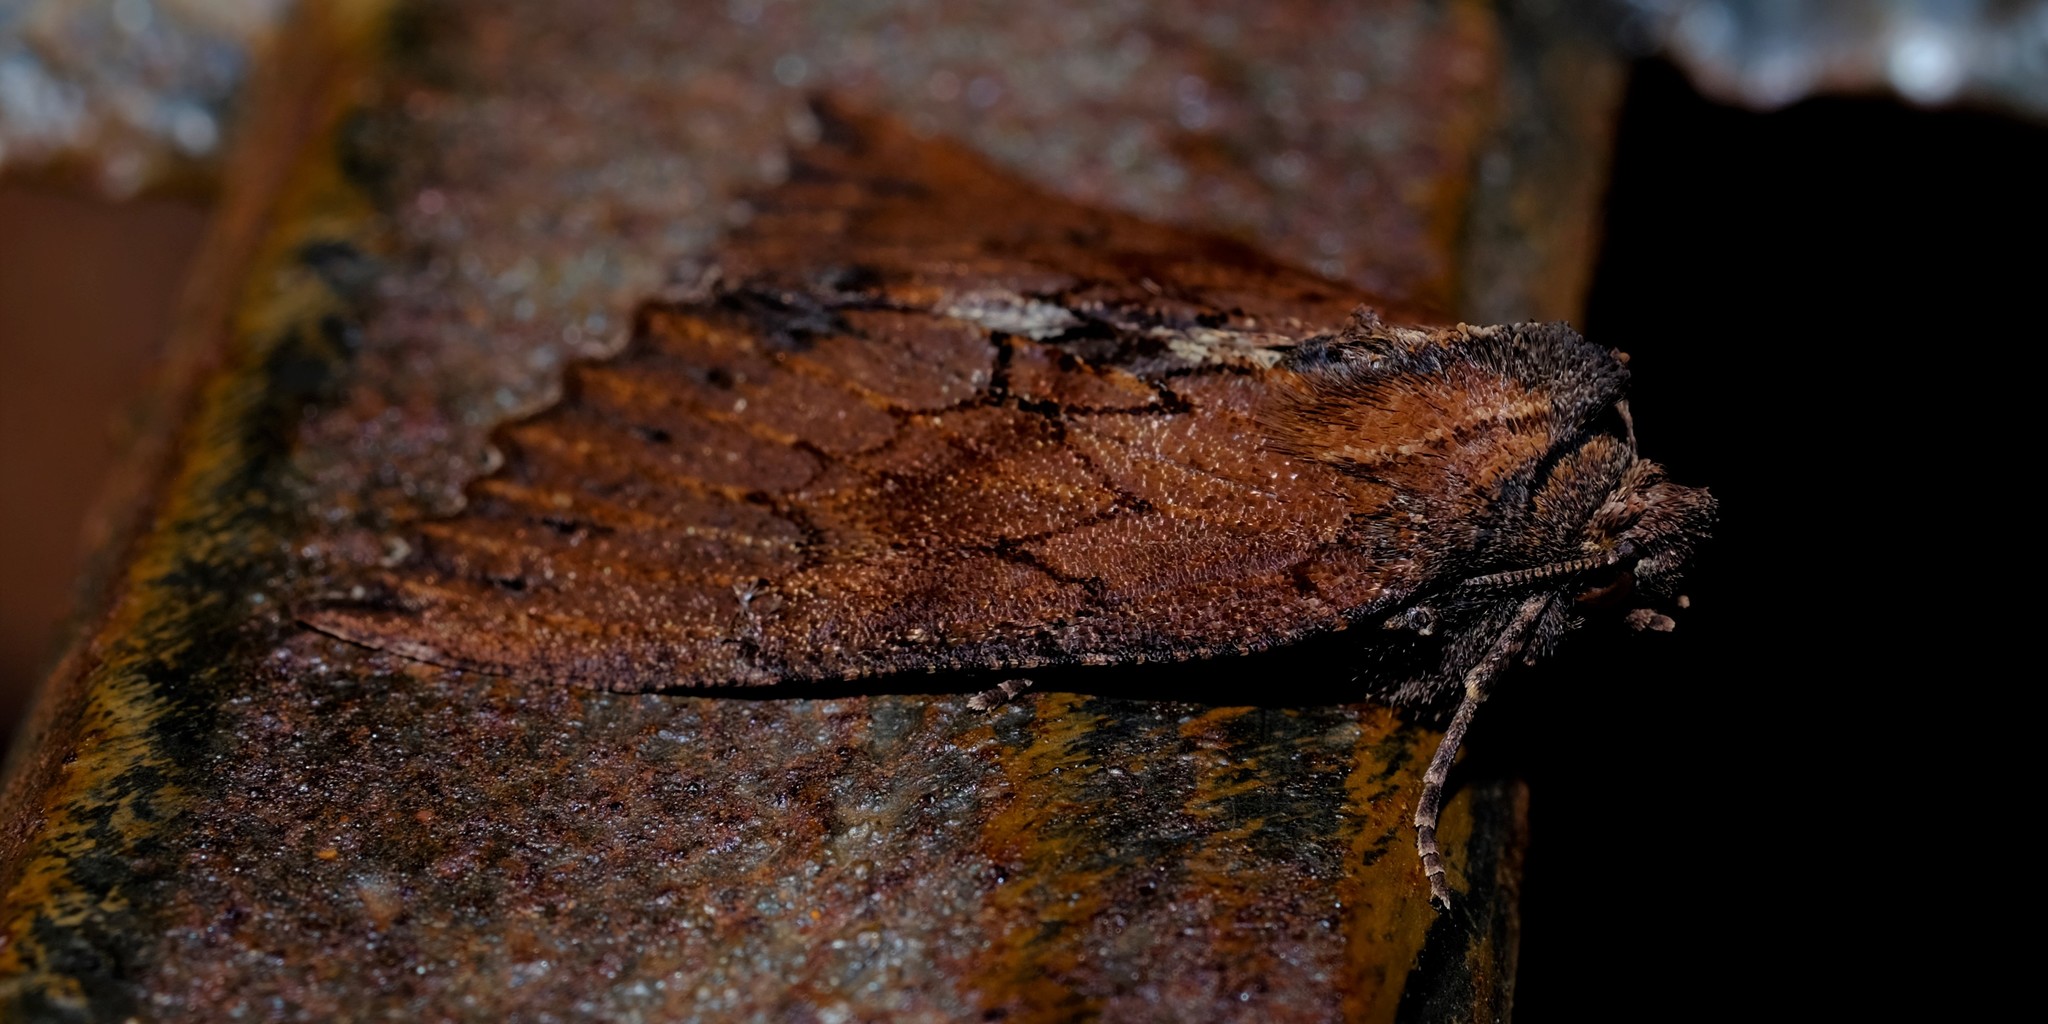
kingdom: Animalia
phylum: Arthropoda
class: Insecta
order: Lepidoptera
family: Geometridae
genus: Nisista
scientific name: Nisista serrata
